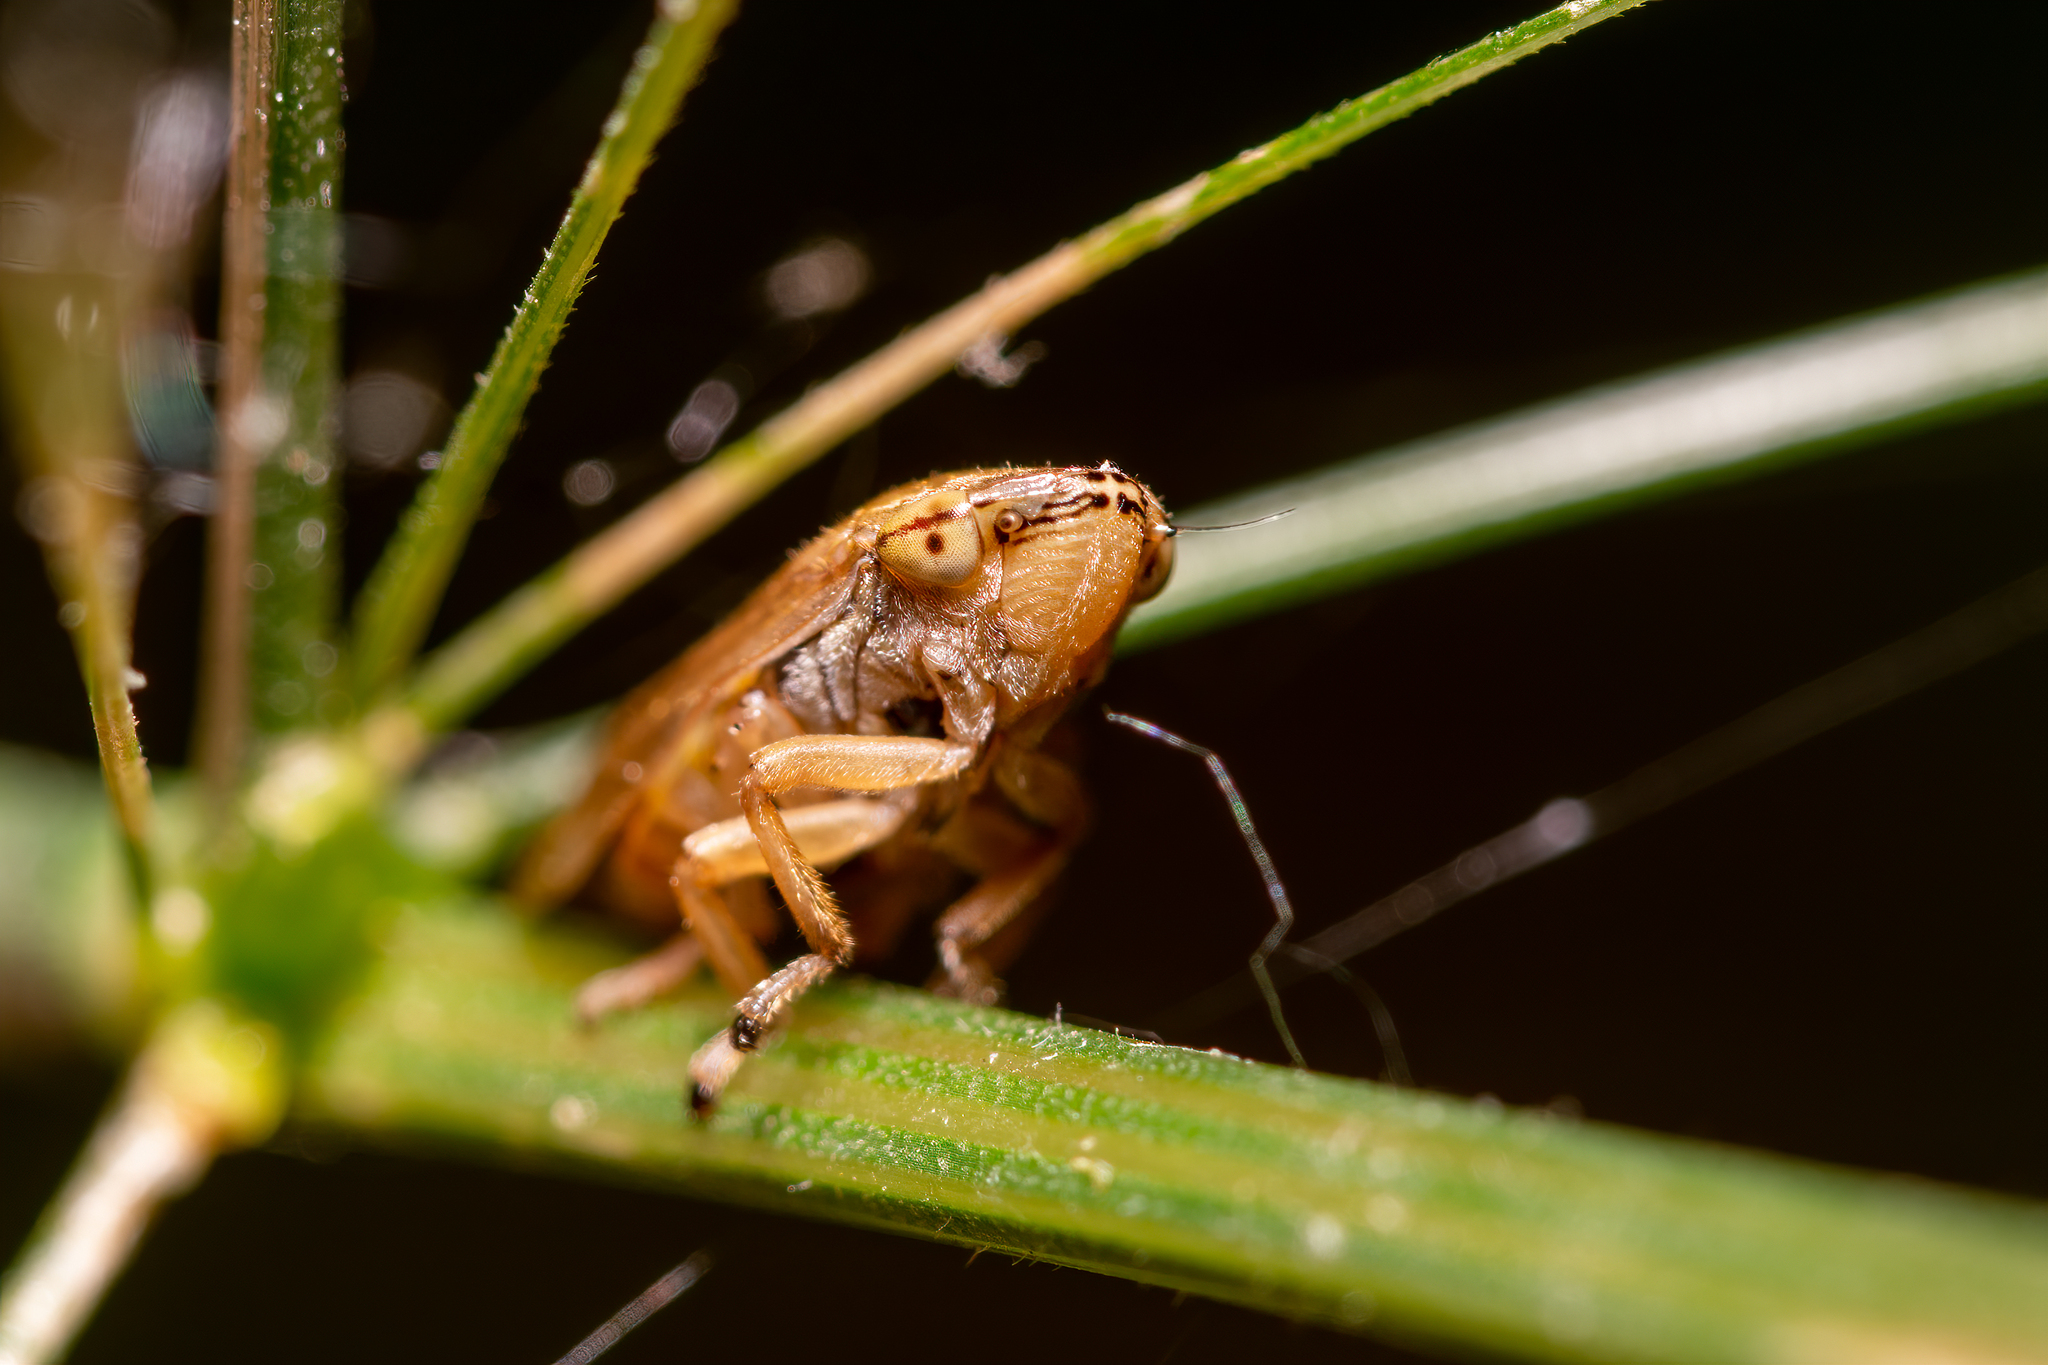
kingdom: Animalia
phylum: Arthropoda
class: Insecta
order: Hemiptera
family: Aphrophoridae
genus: Philaenus
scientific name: Philaenus spumarius
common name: Meadow spittlebug
